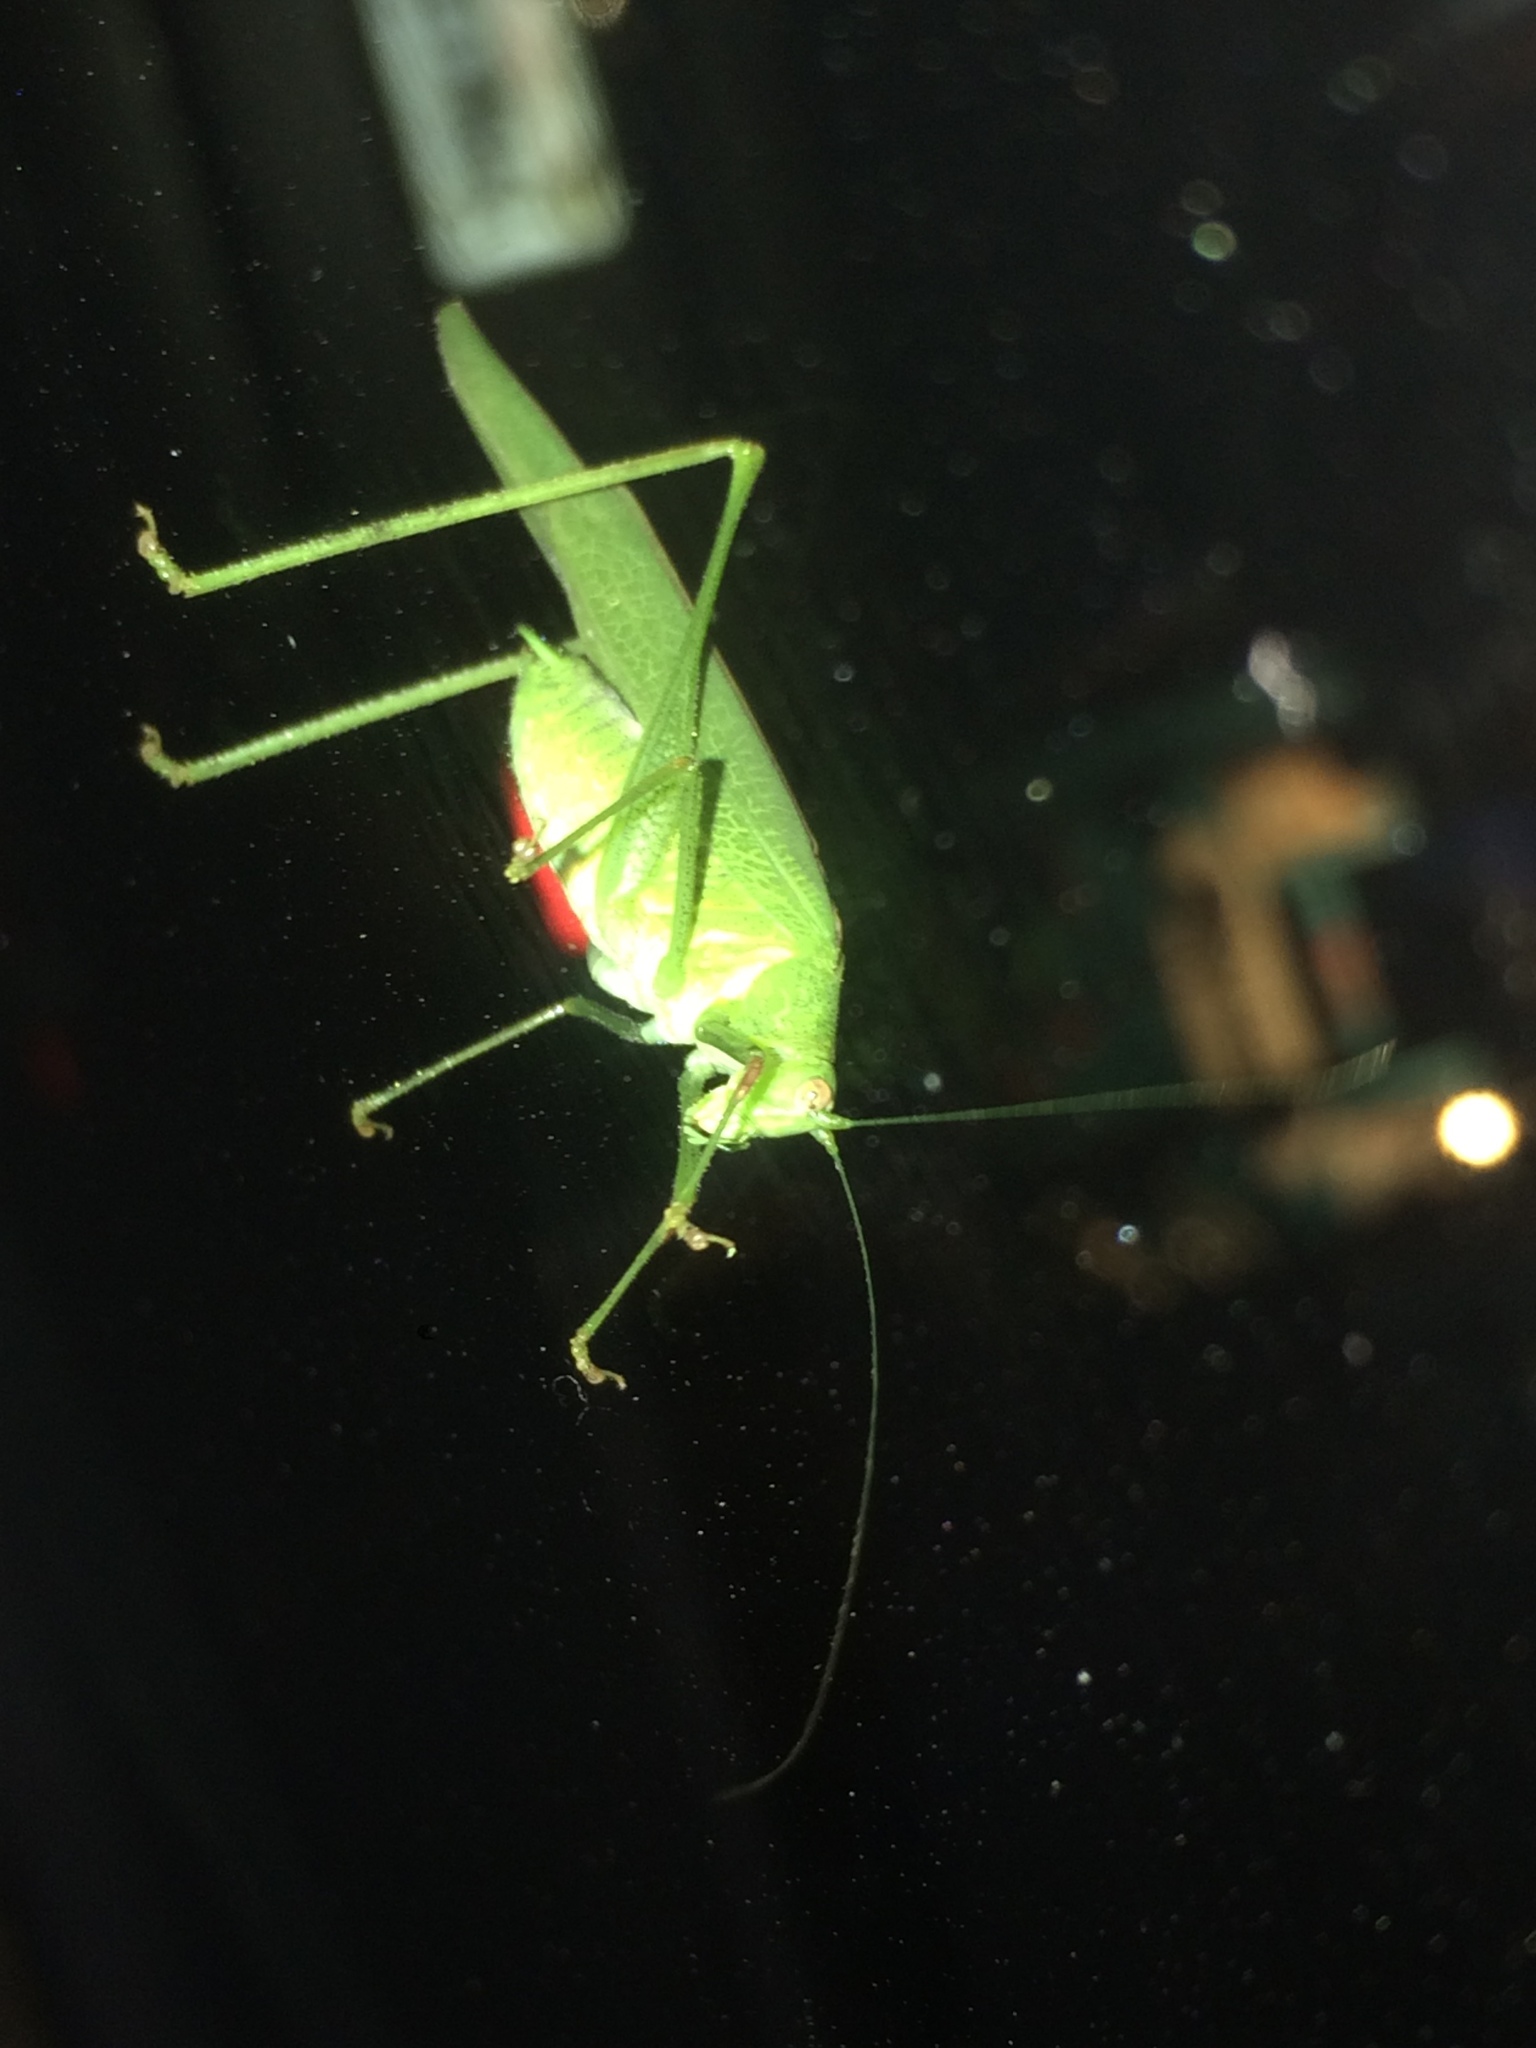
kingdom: Animalia
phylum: Arthropoda
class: Insecta
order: Orthoptera
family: Tettigoniidae
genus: Phaneroptera
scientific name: Phaneroptera nana
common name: Southern sickle bush-cricket
